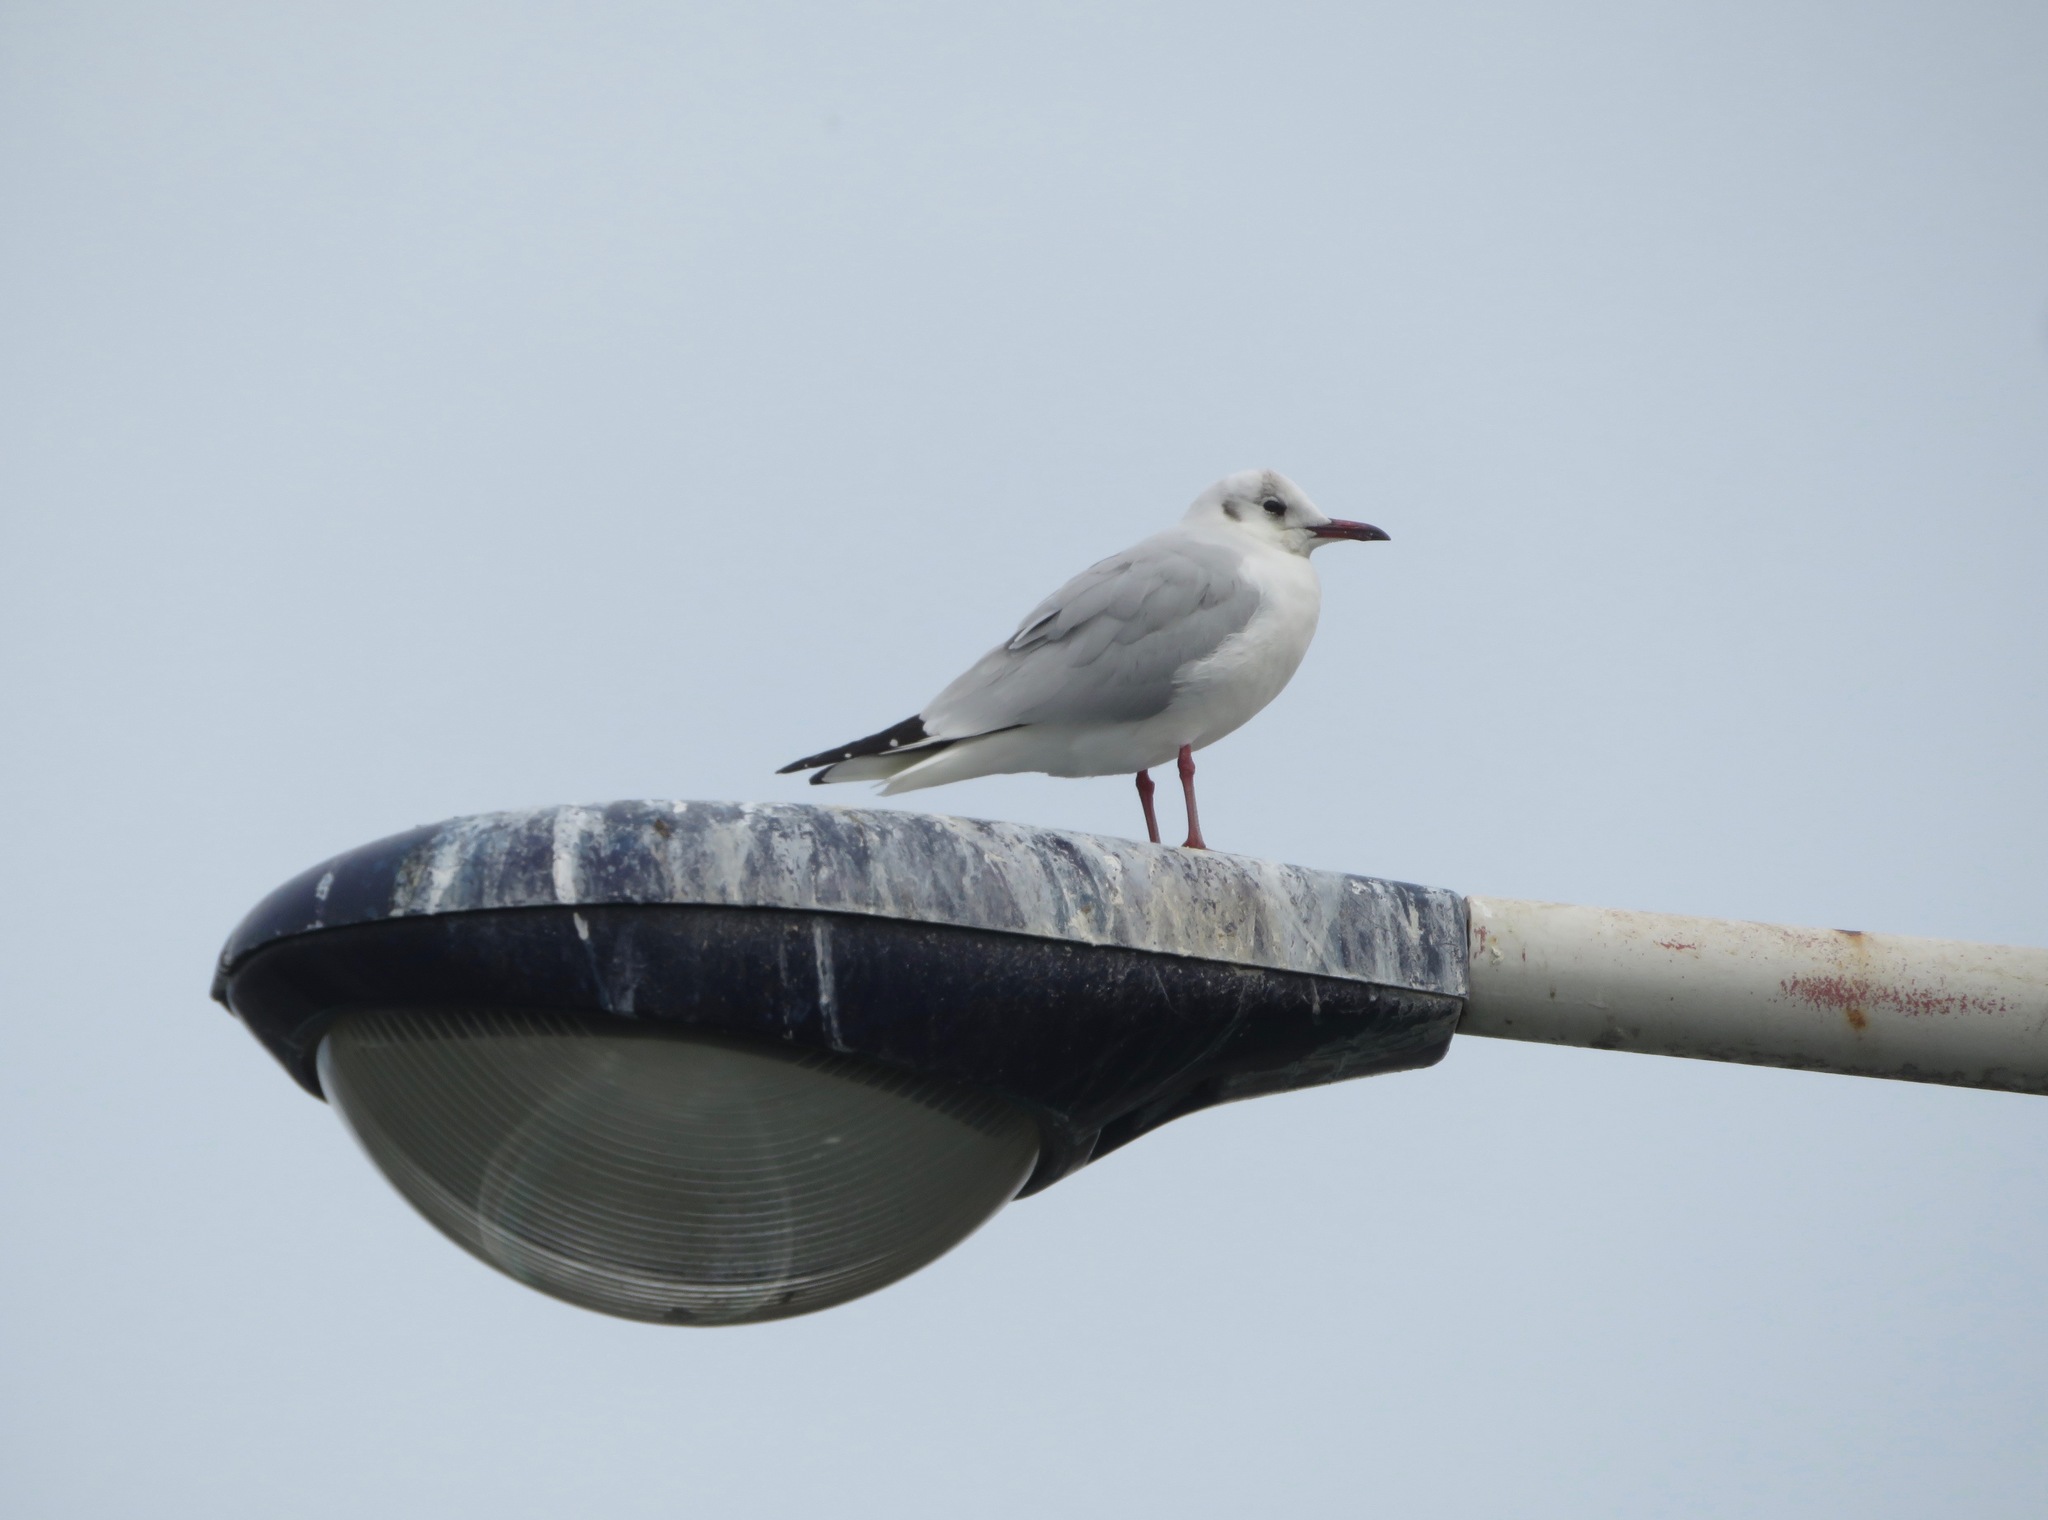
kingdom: Animalia
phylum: Chordata
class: Aves
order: Charadriiformes
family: Laridae
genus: Chroicocephalus
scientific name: Chroicocephalus ridibundus
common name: Black-headed gull
